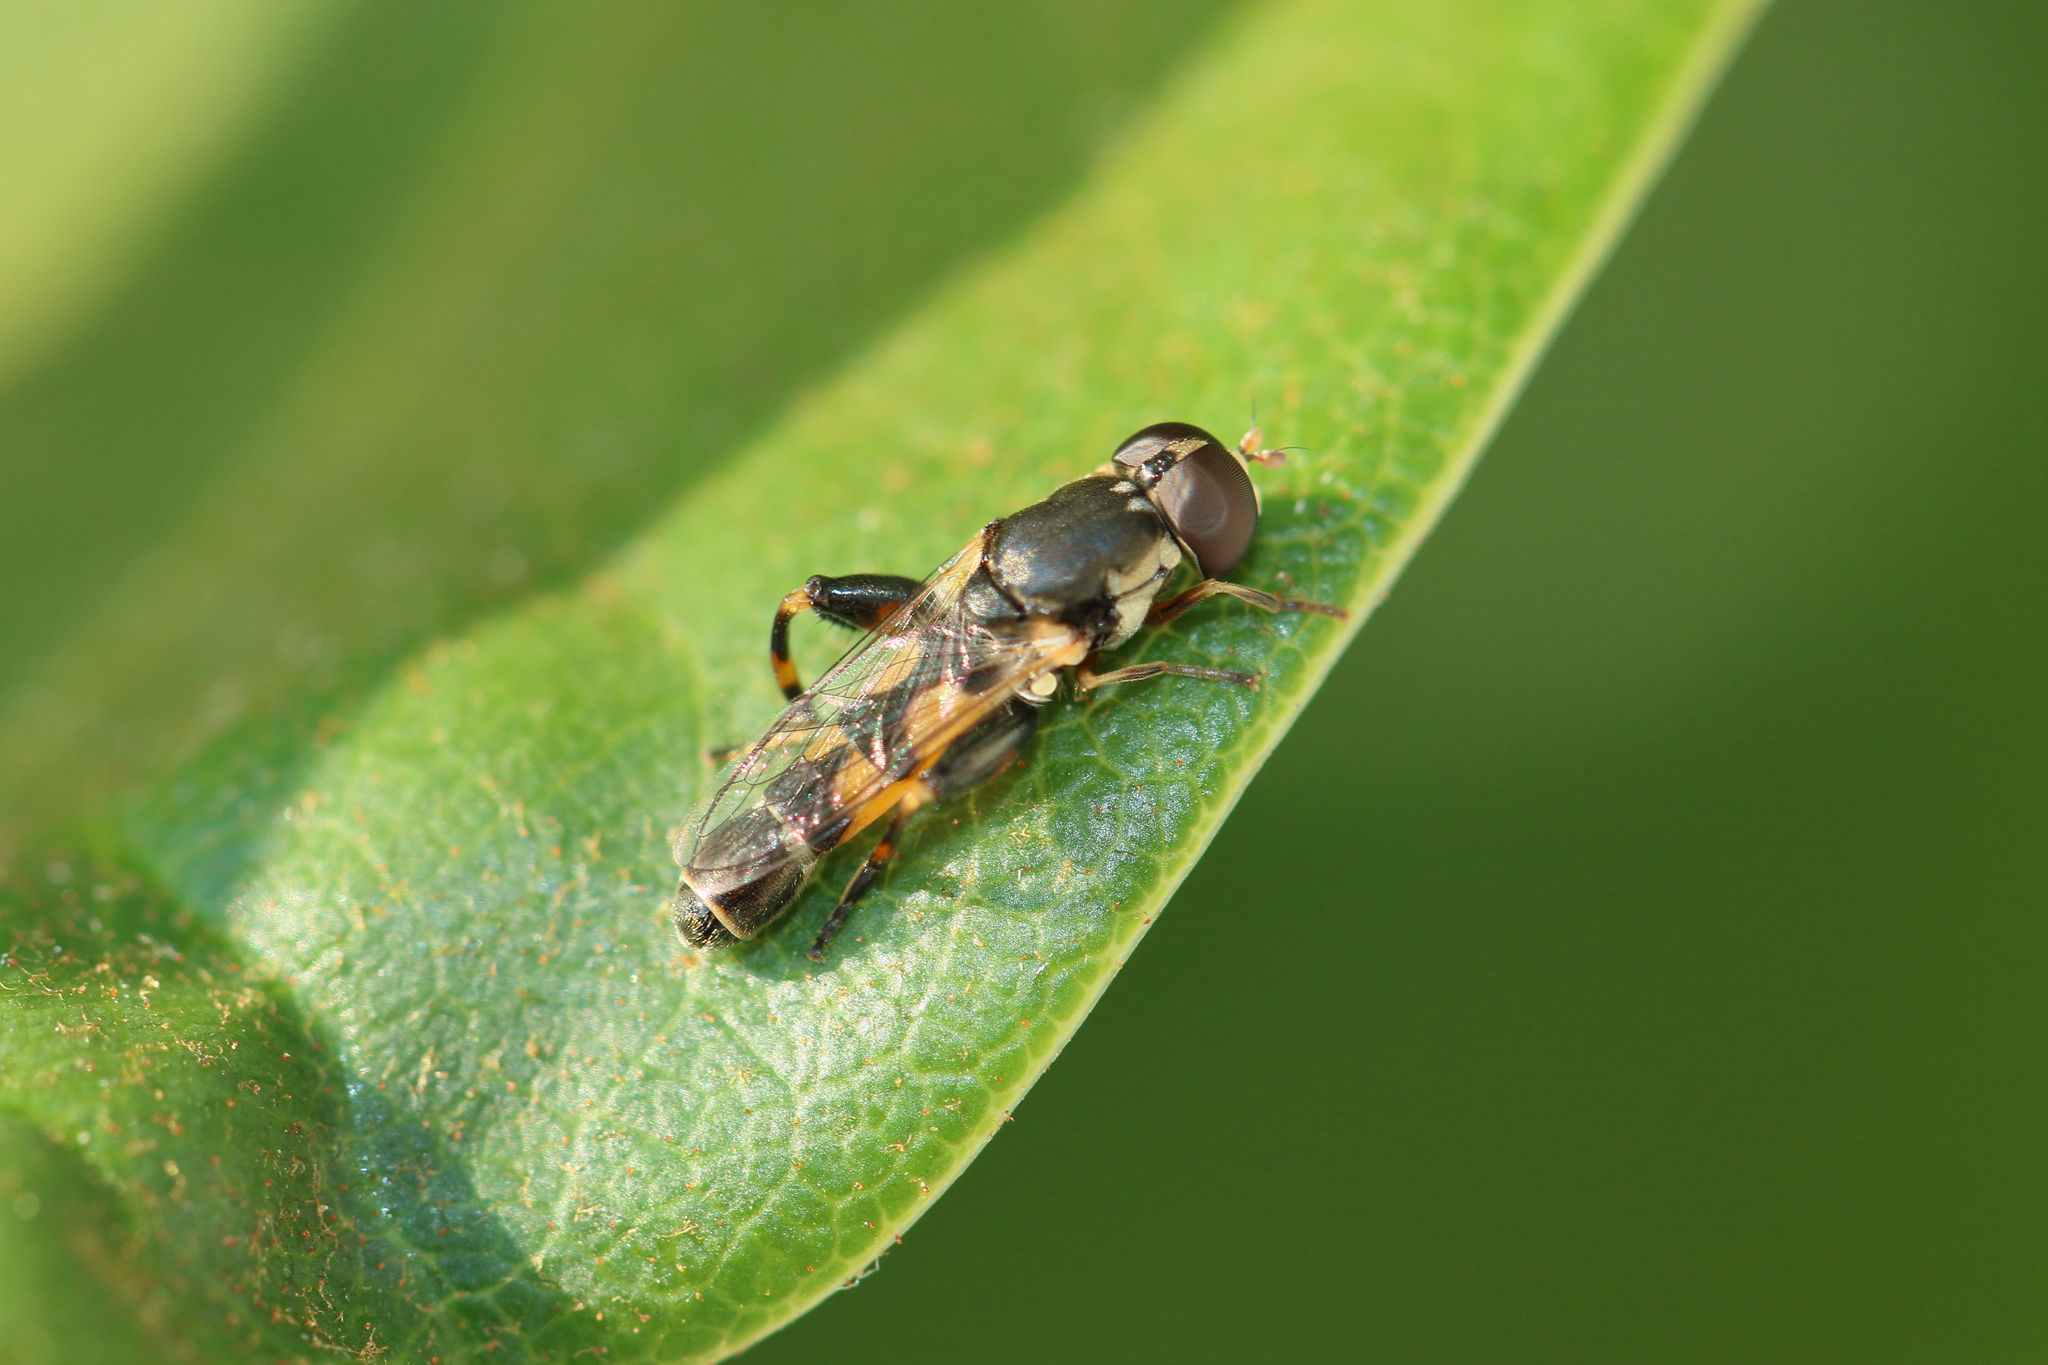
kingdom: Animalia
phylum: Arthropoda
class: Insecta
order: Diptera
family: Syrphidae
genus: Syritta
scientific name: Syritta pipiens
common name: Hover fly
